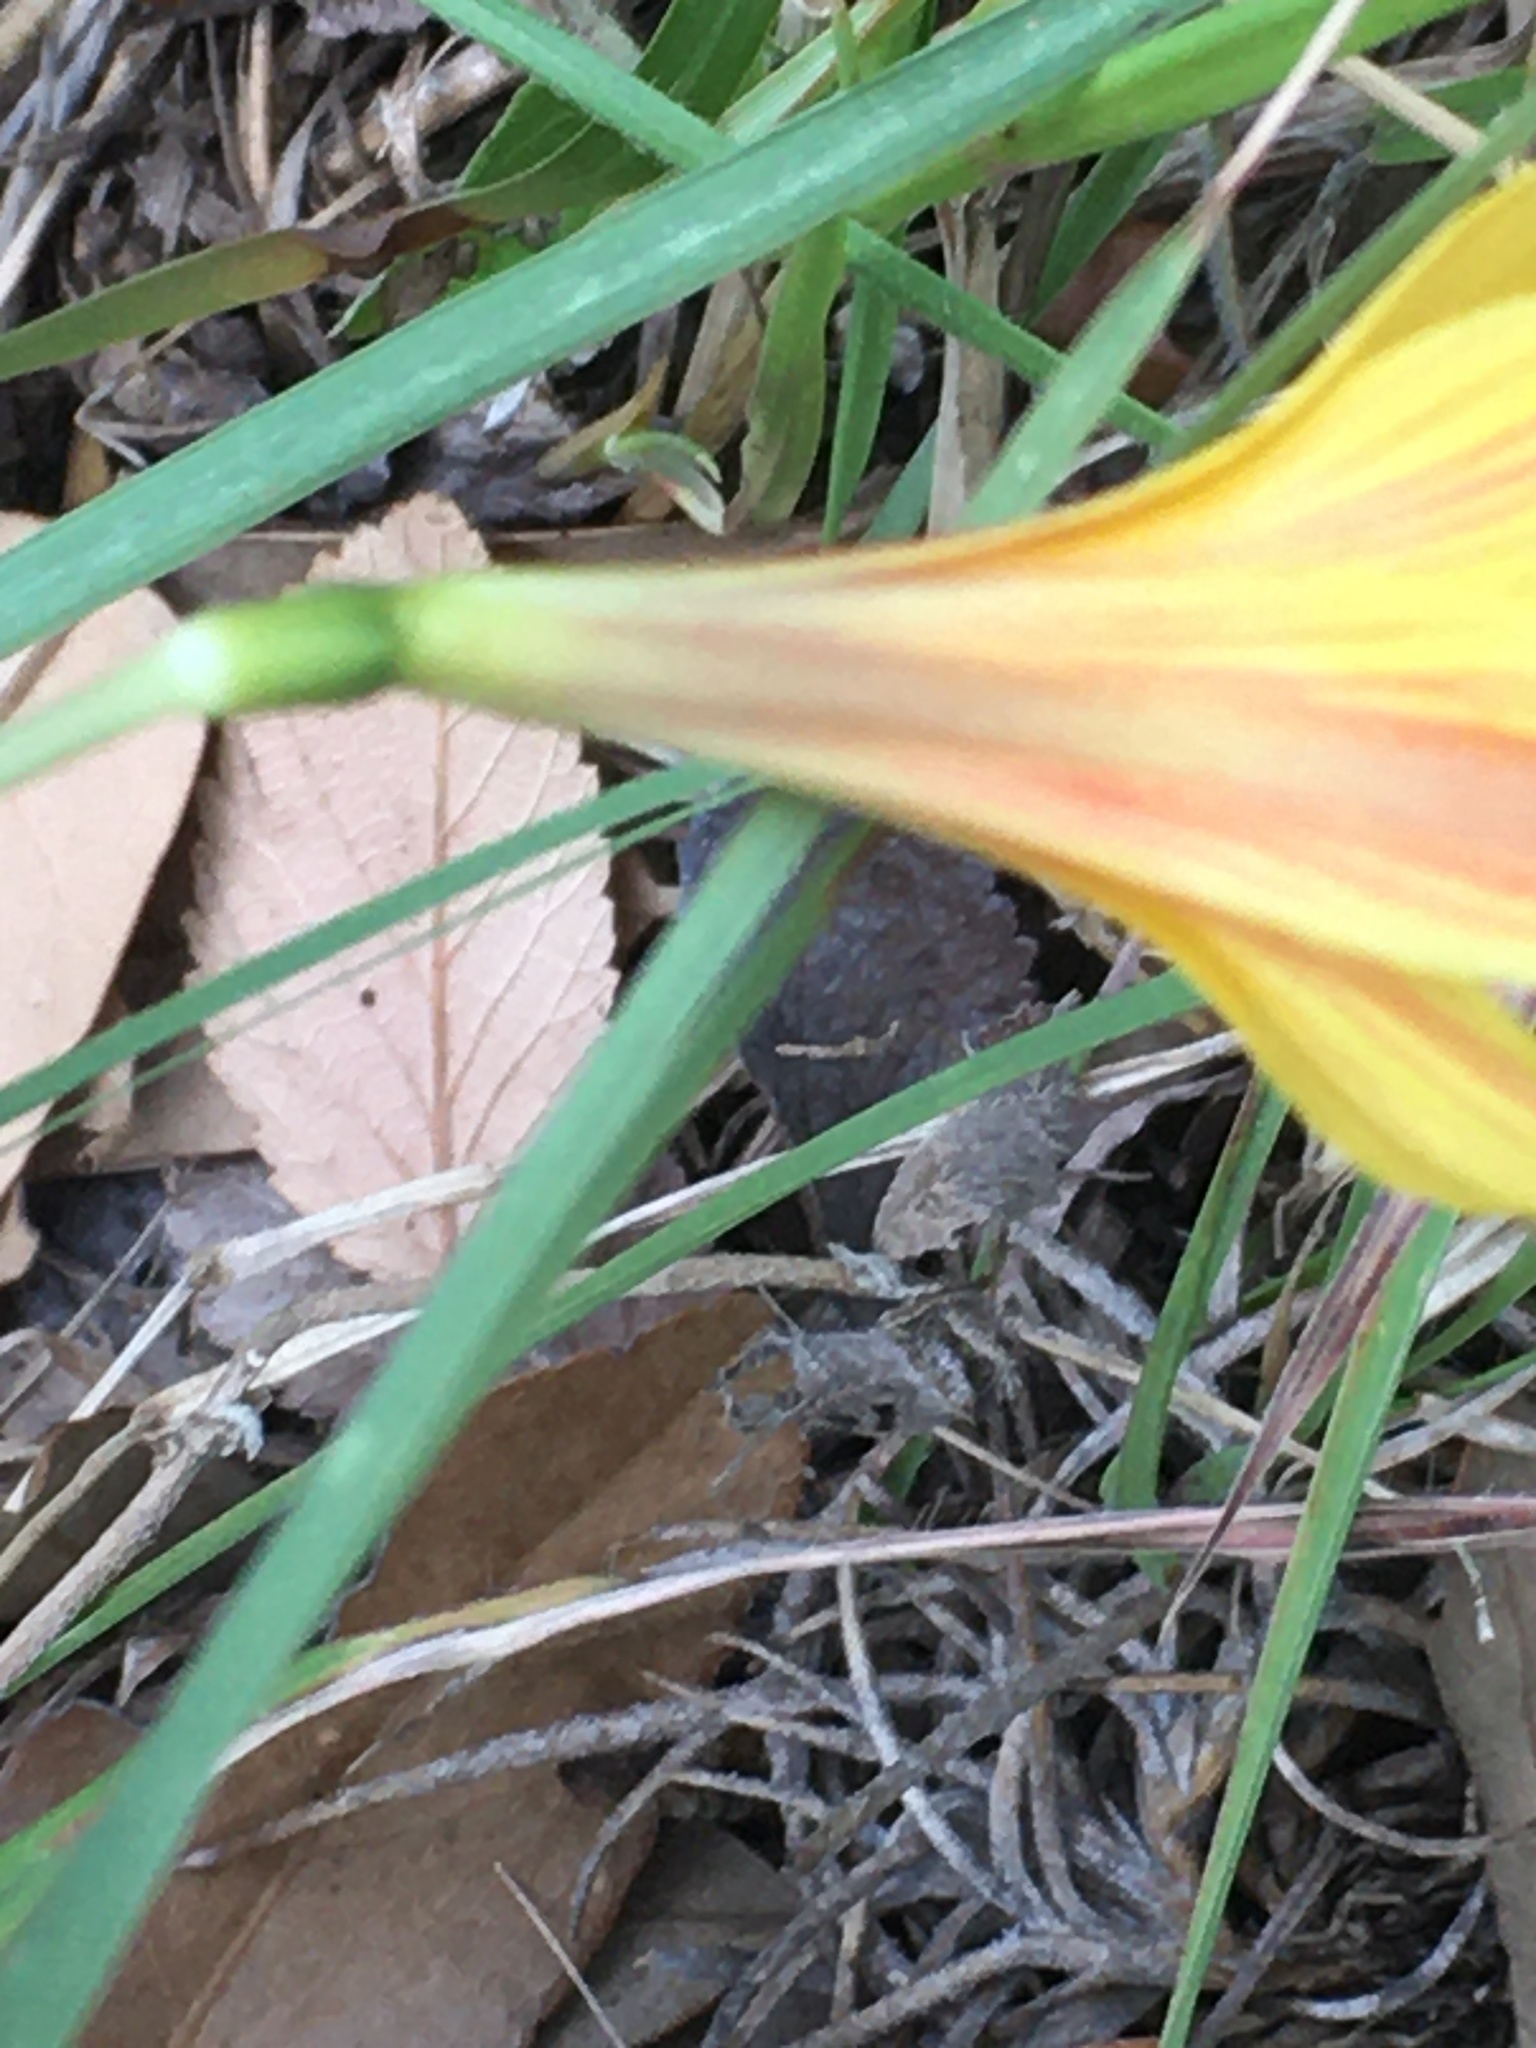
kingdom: Plantae
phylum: Tracheophyta
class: Liliopsida
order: Asparagales
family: Amaryllidaceae
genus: Zephyranthes
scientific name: Zephyranthes tubispatha
